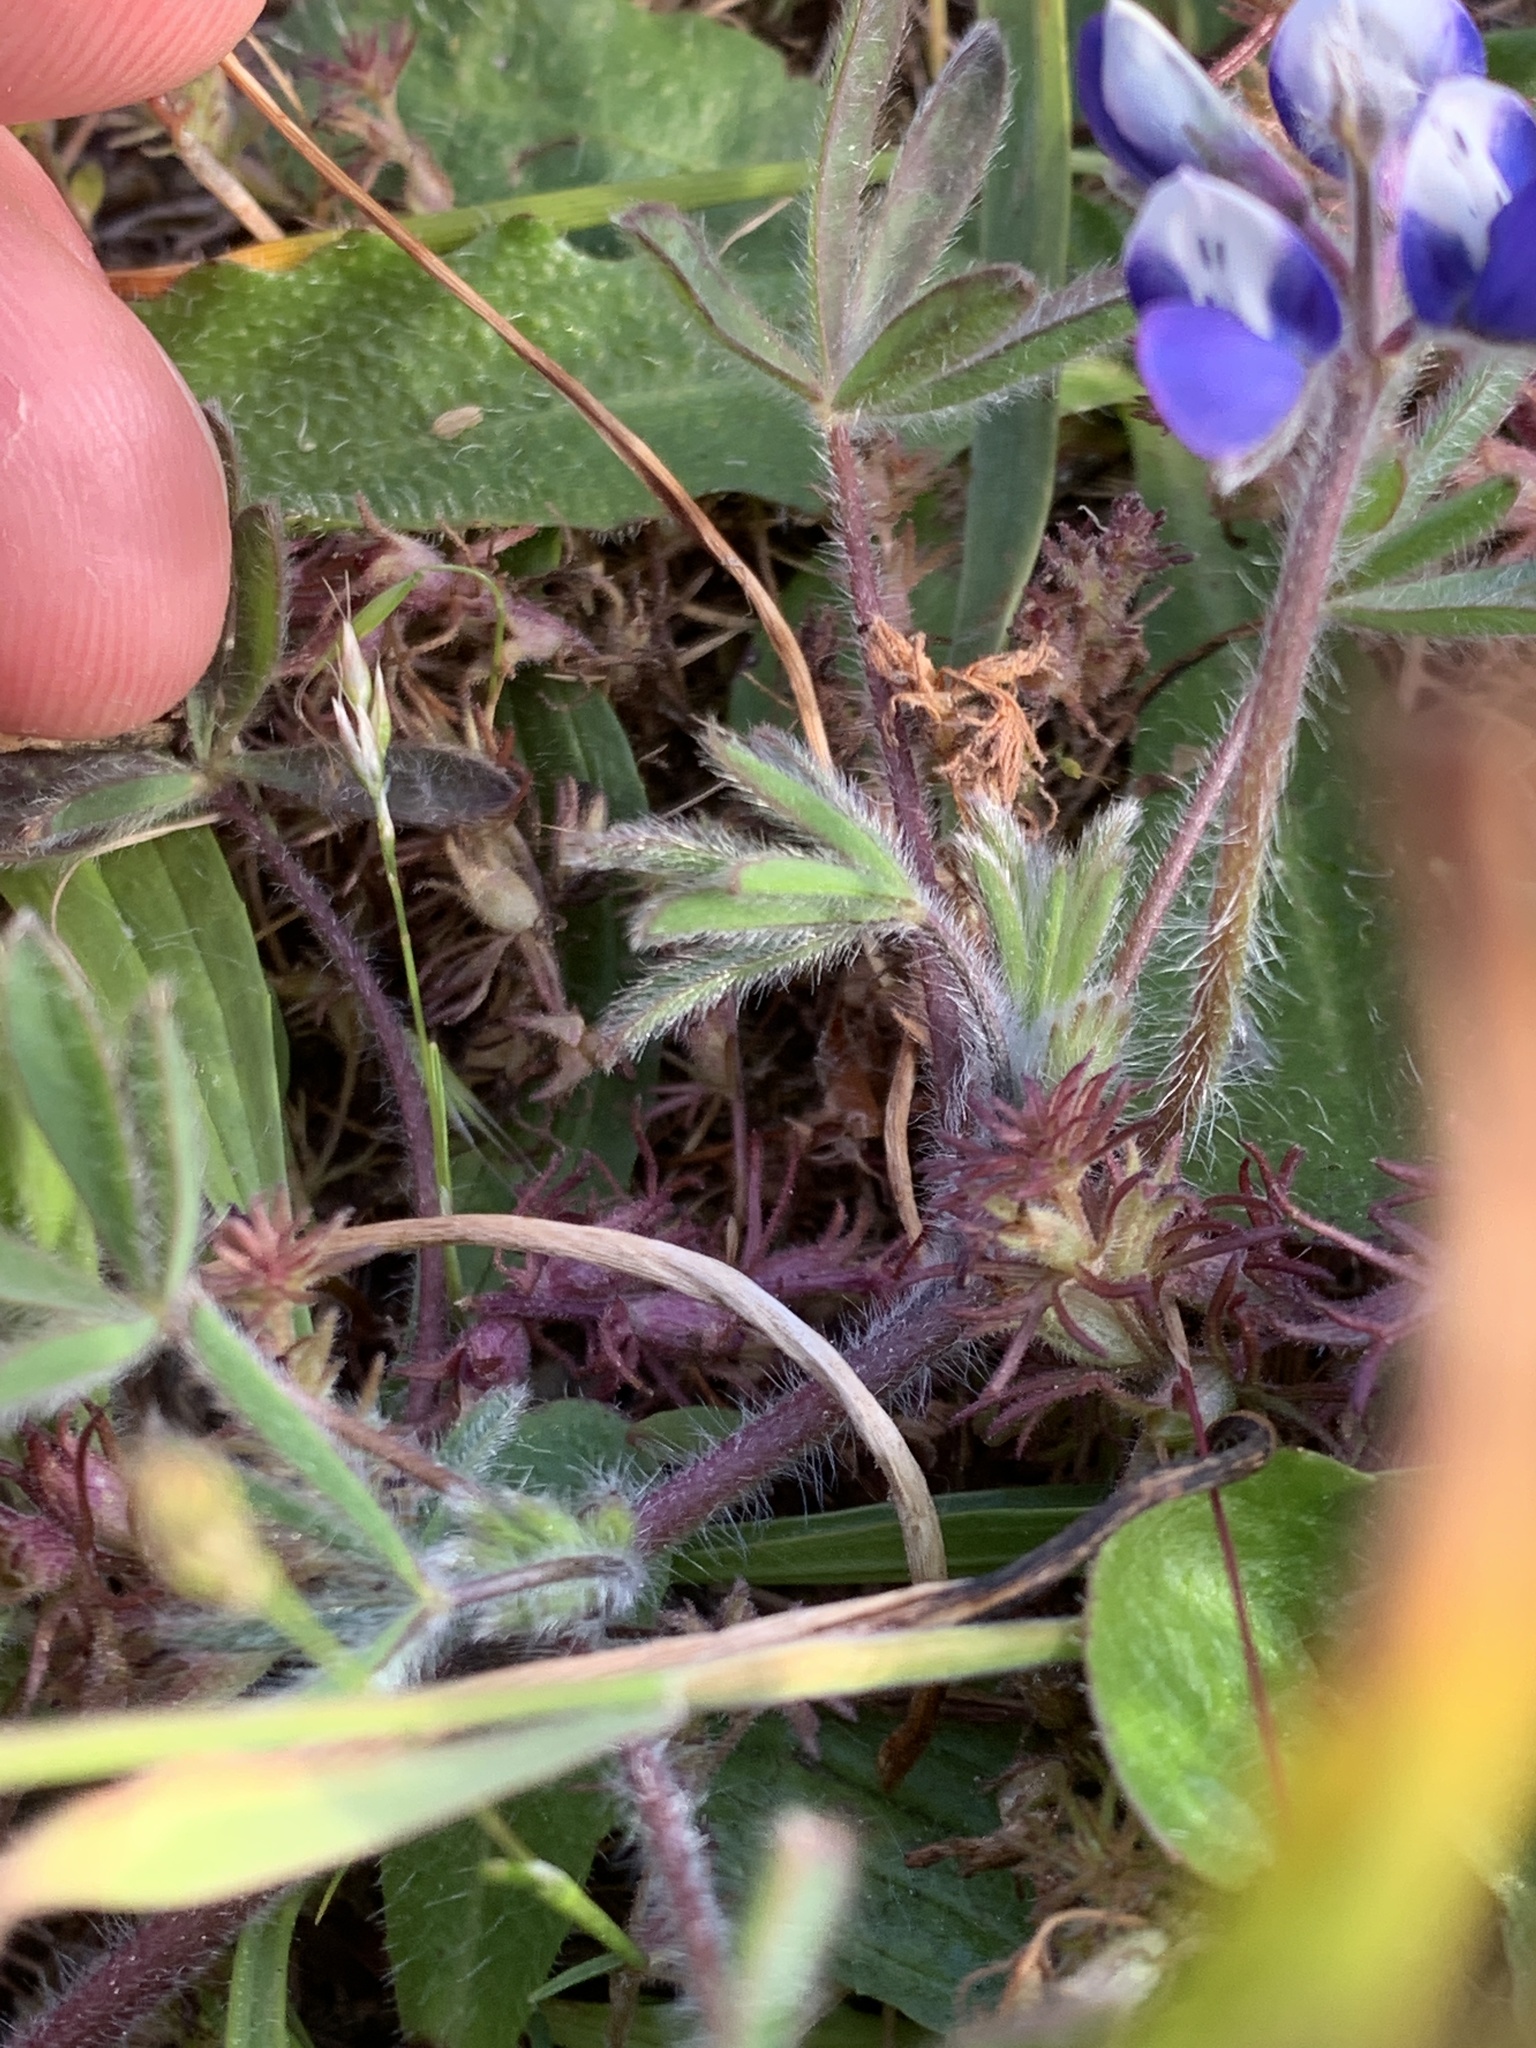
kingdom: Plantae
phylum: Tracheophyta
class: Magnoliopsida
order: Fabales
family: Fabaceae
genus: Lupinus
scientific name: Lupinus bicolor
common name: Miniature lupine
